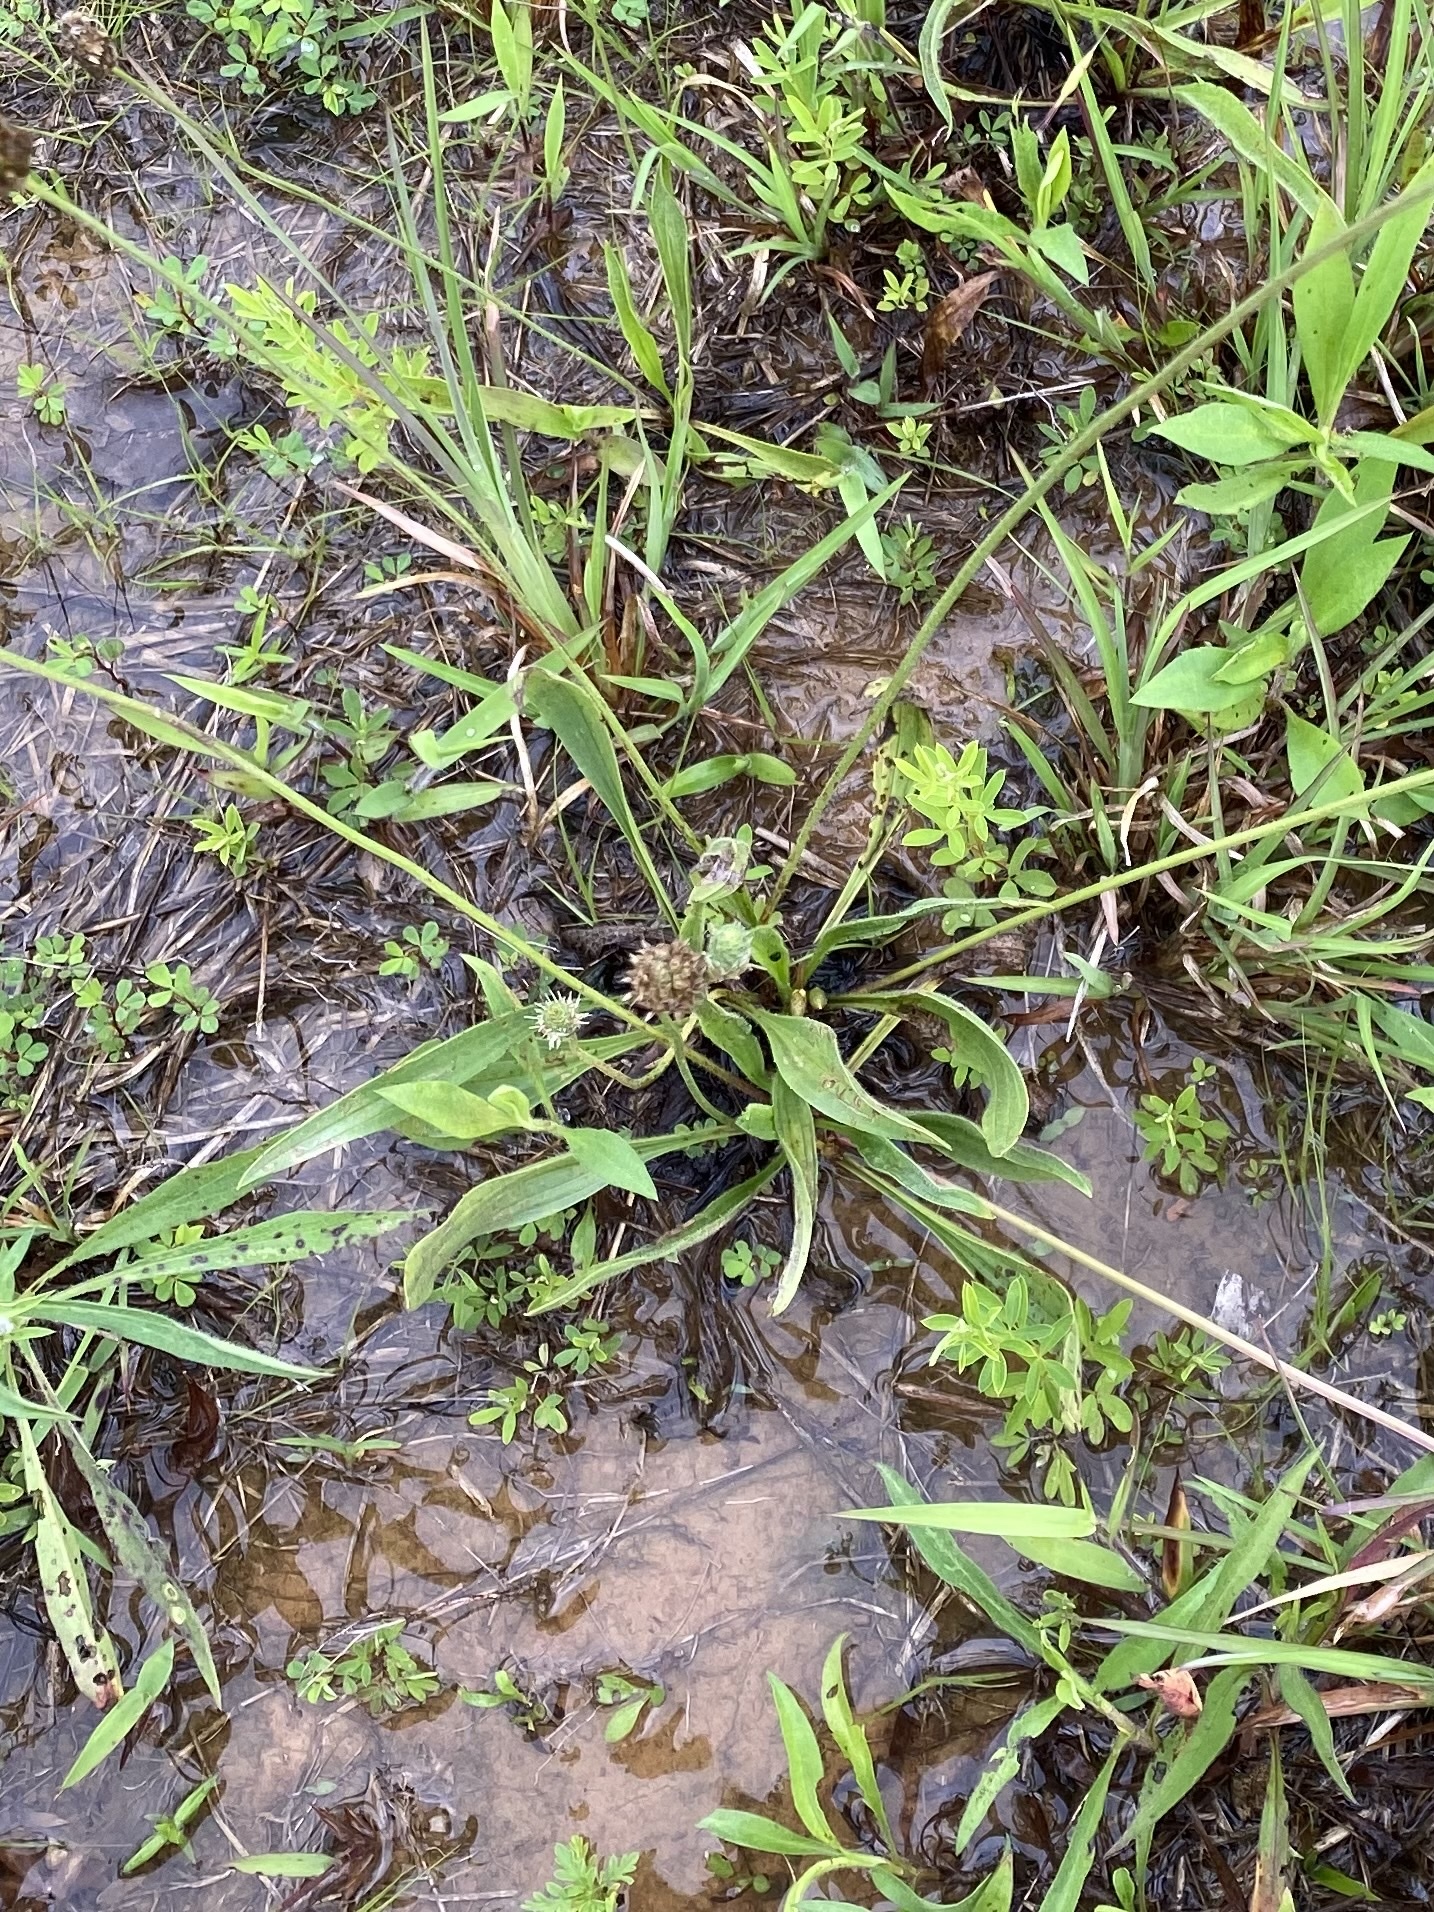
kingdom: Plantae
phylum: Tracheophyta
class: Magnoliopsida
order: Lamiales
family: Plantaginaceae
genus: Plantago
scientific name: Plantago lanceolata
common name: Ribwort plantain
